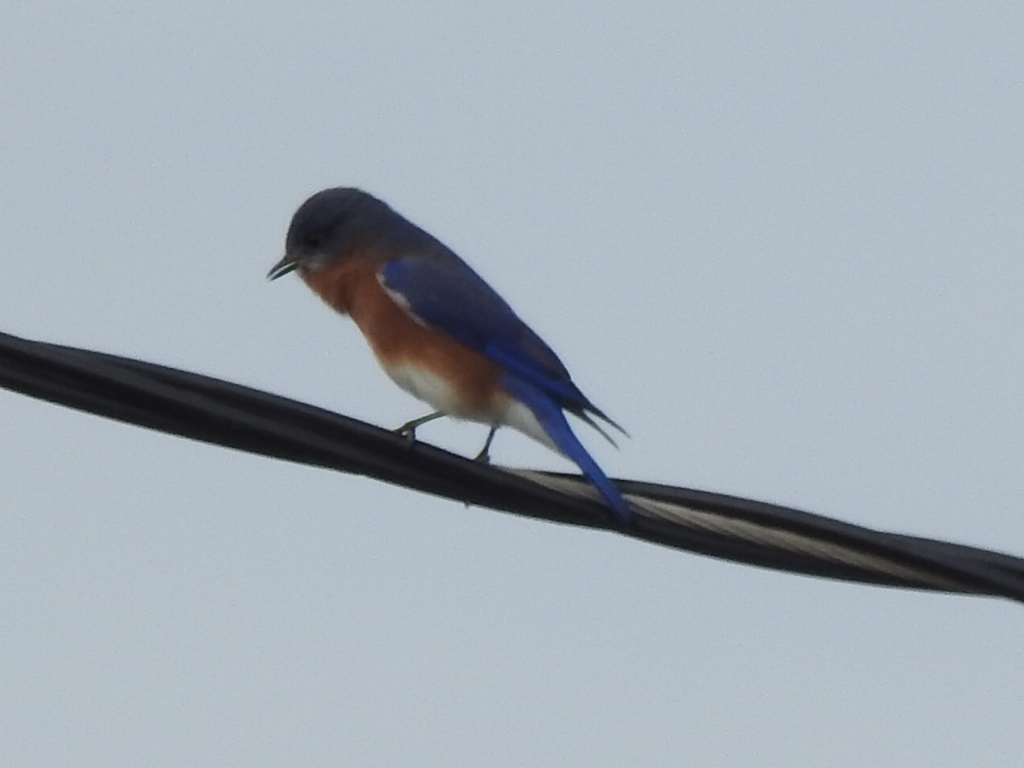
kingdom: Animalia
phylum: Chordata
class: Aves
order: Passeriformes
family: Turdidae
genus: Sialia
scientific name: Sialia sialis
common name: Eastern bluebird
